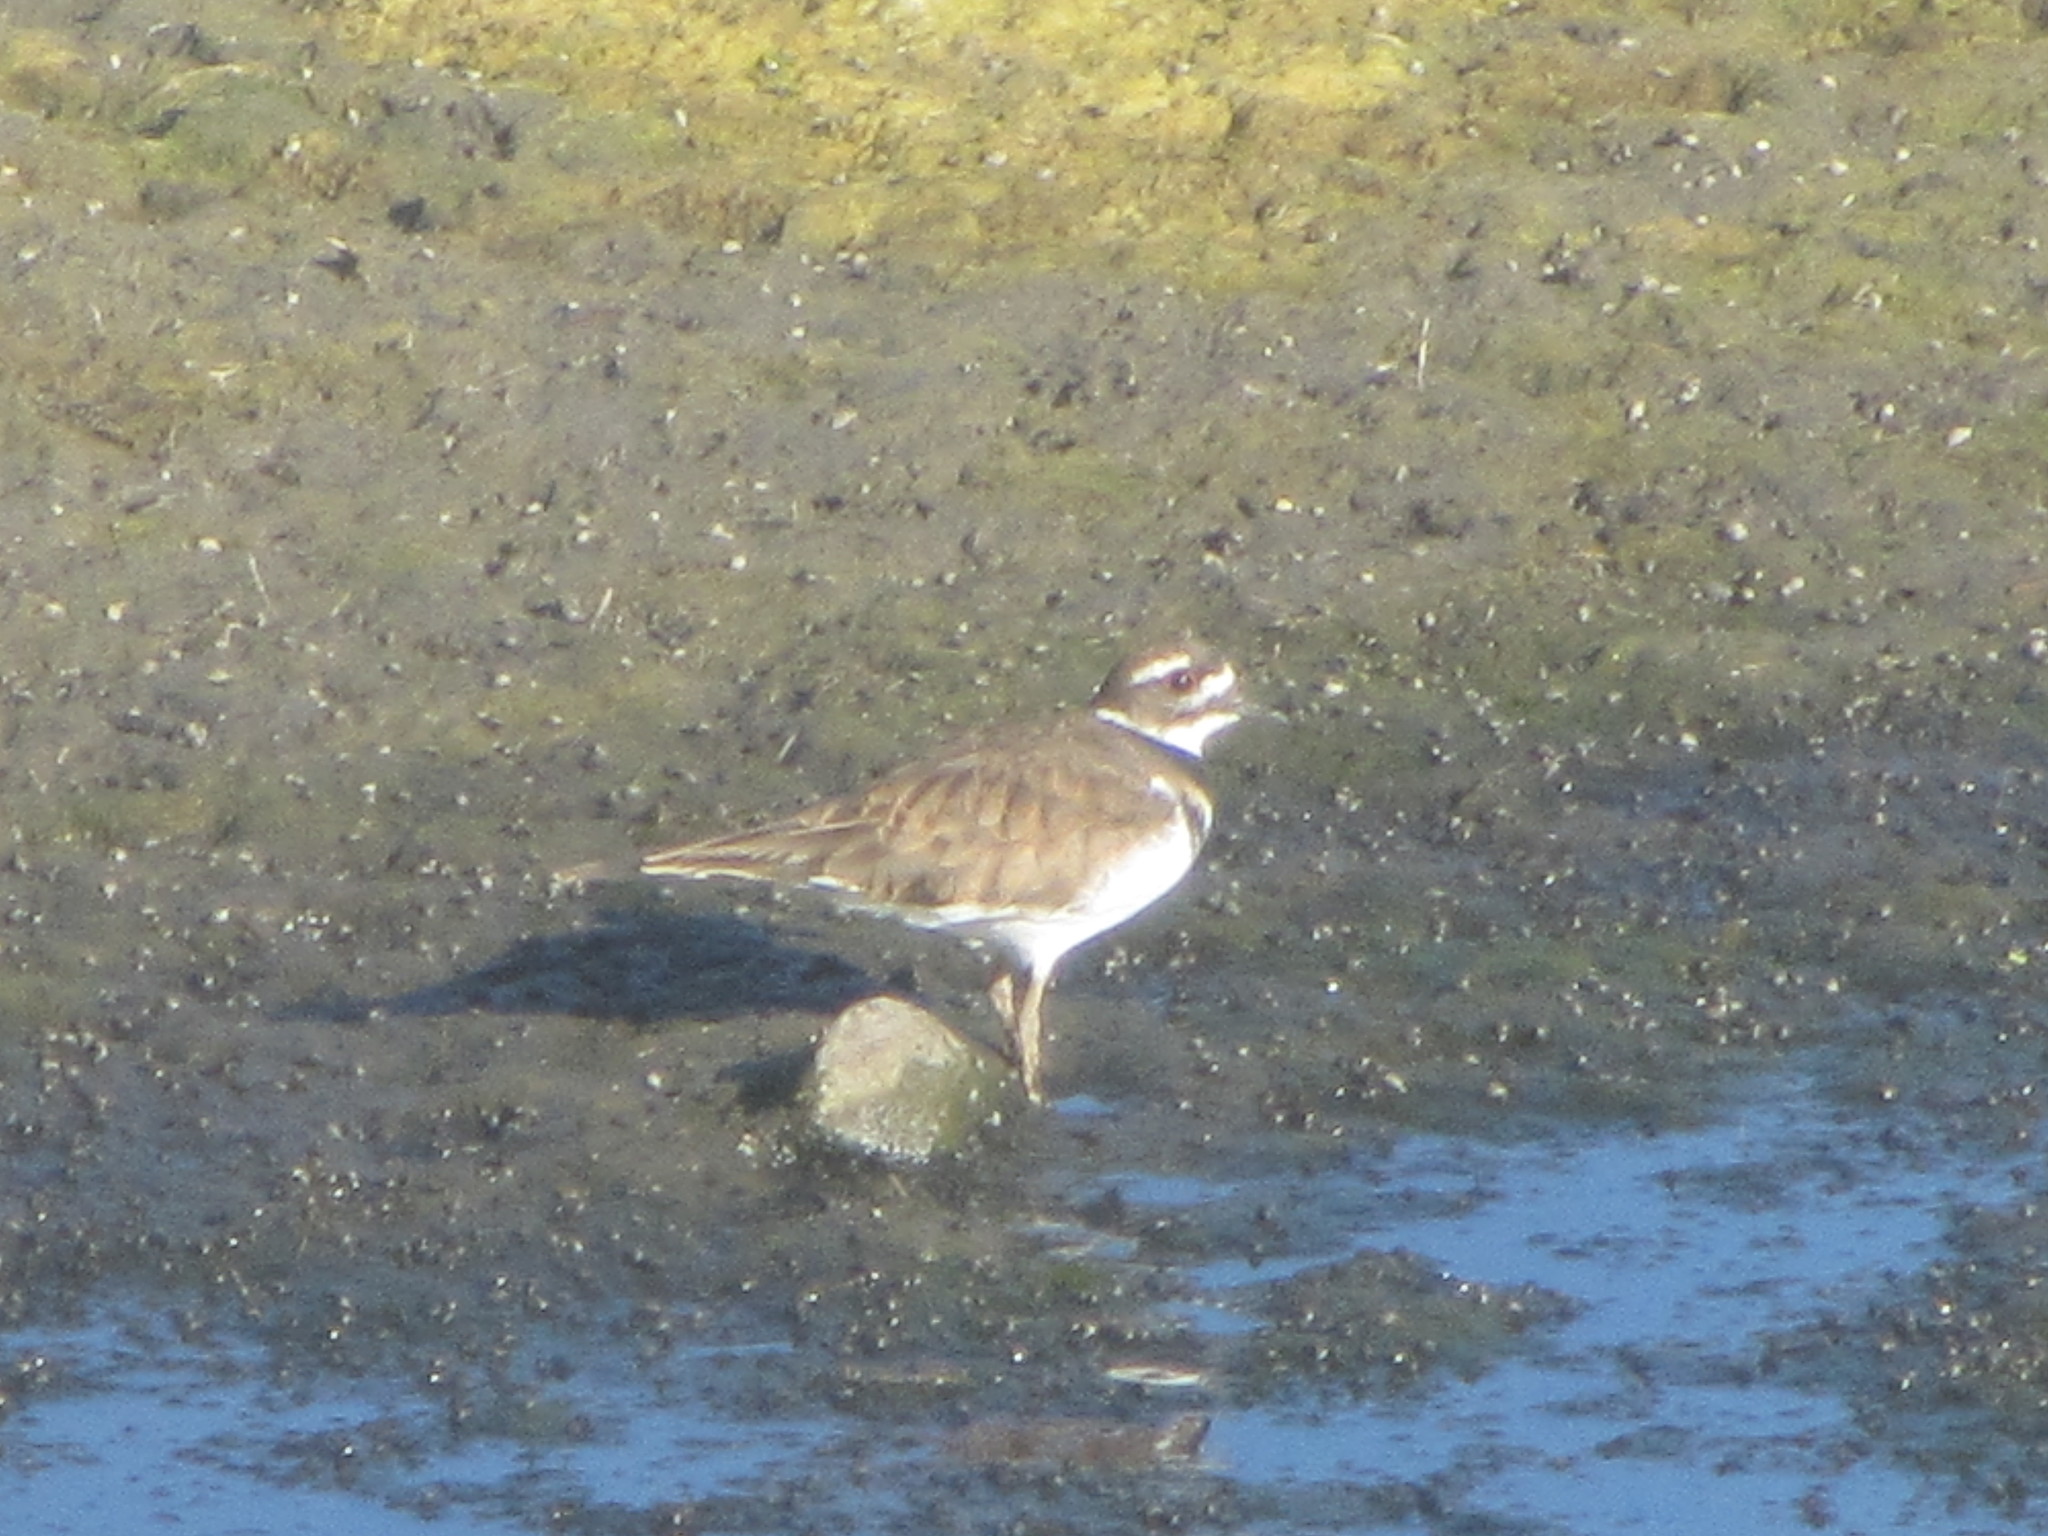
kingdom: Animalia
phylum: Chordata
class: Aves
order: Charadriiformes
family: Charadriidae
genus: Charadrius
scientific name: Charadrius vociferus
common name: Killdeer
